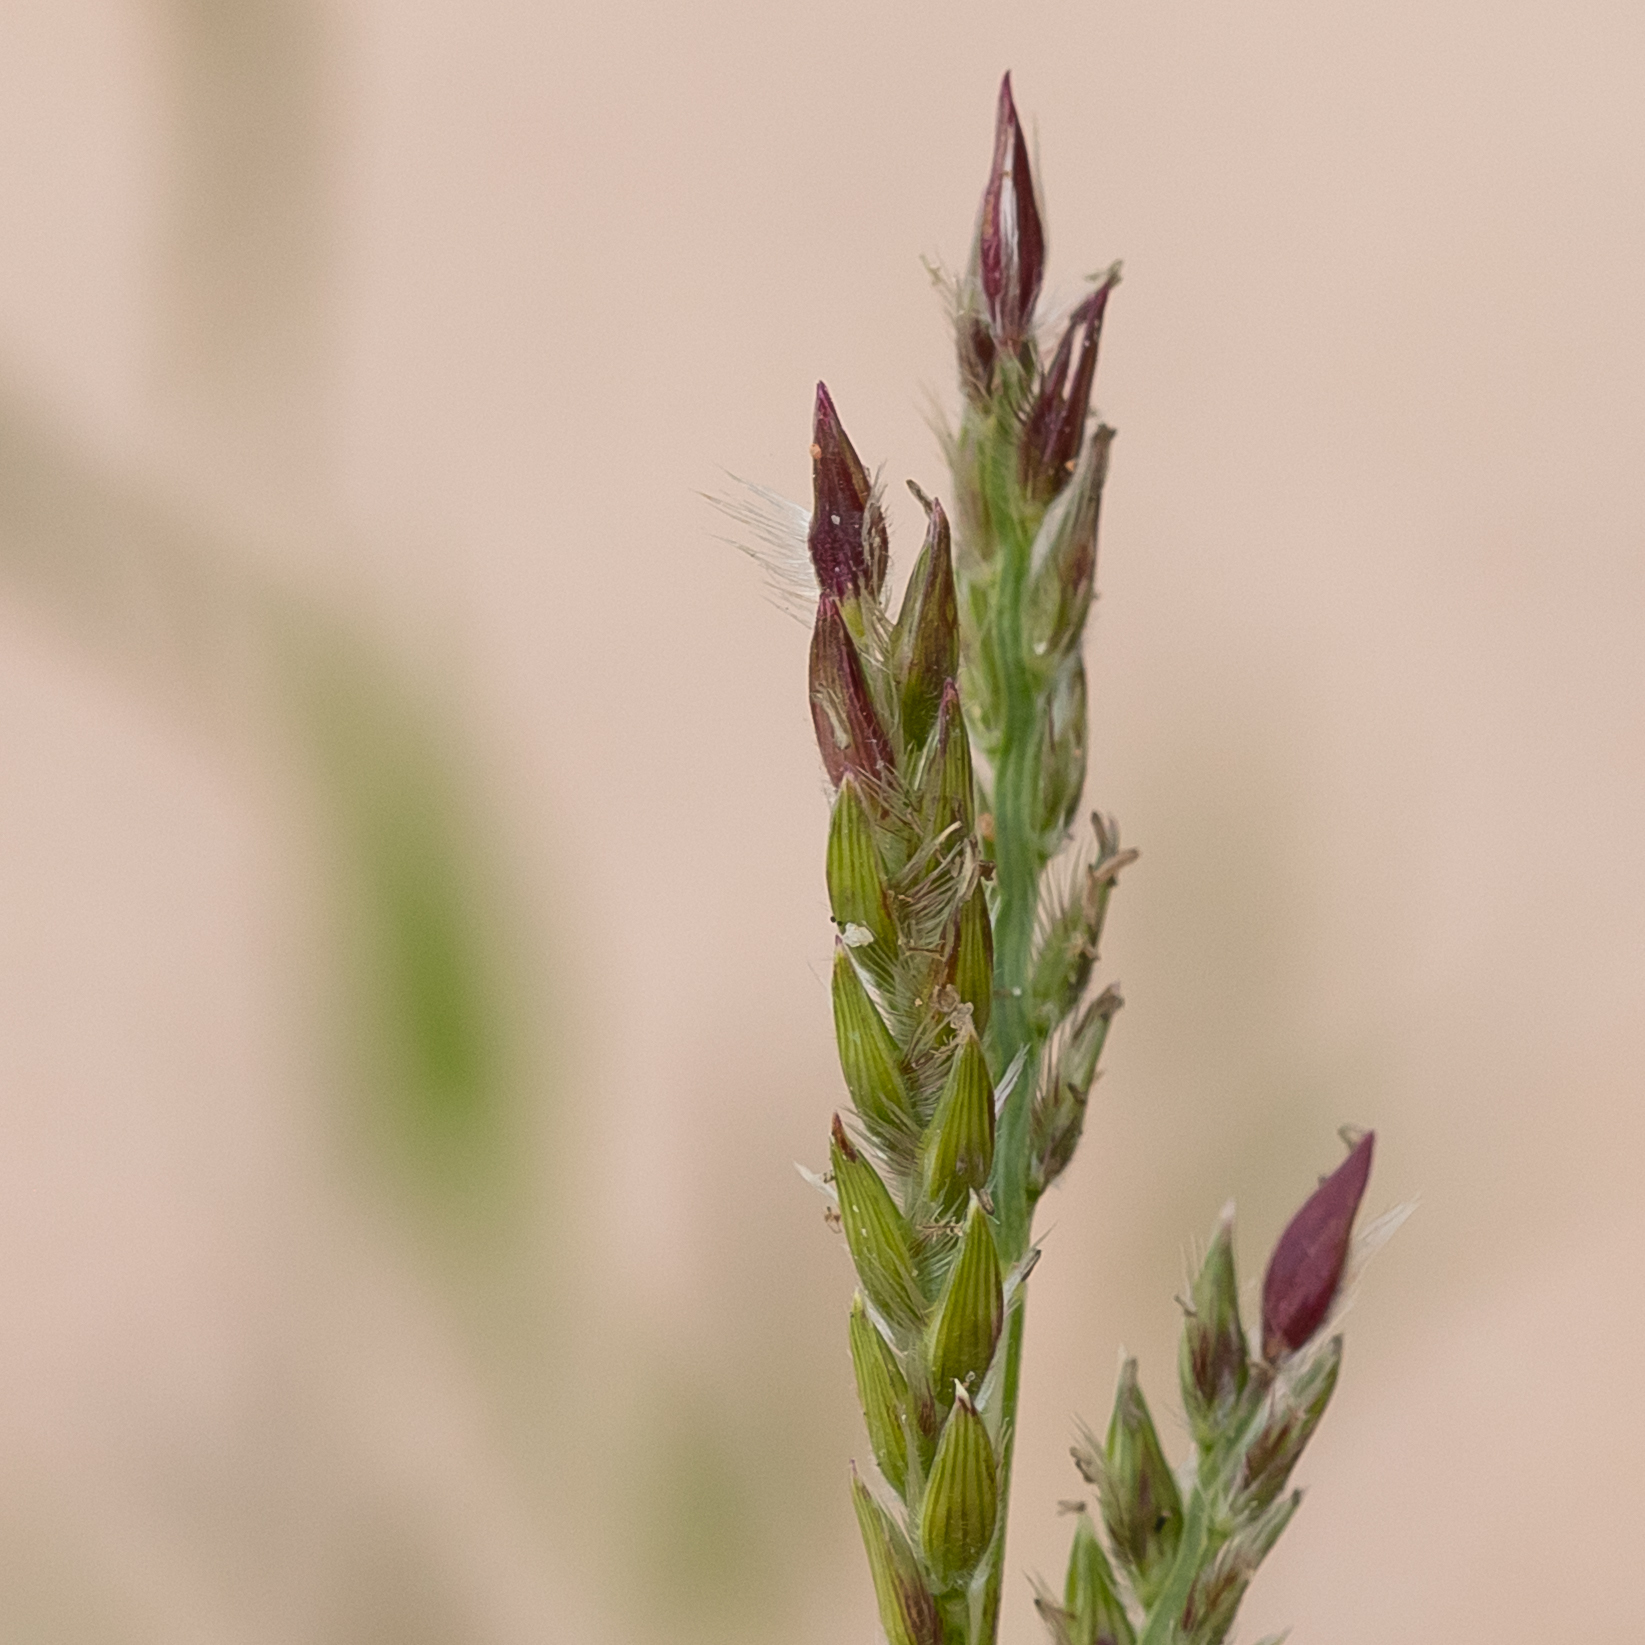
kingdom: Plantae
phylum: Tracheophyta
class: Liliopsida
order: Poales
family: Poaceae
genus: Urochloa
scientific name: Urochloa gilesii
